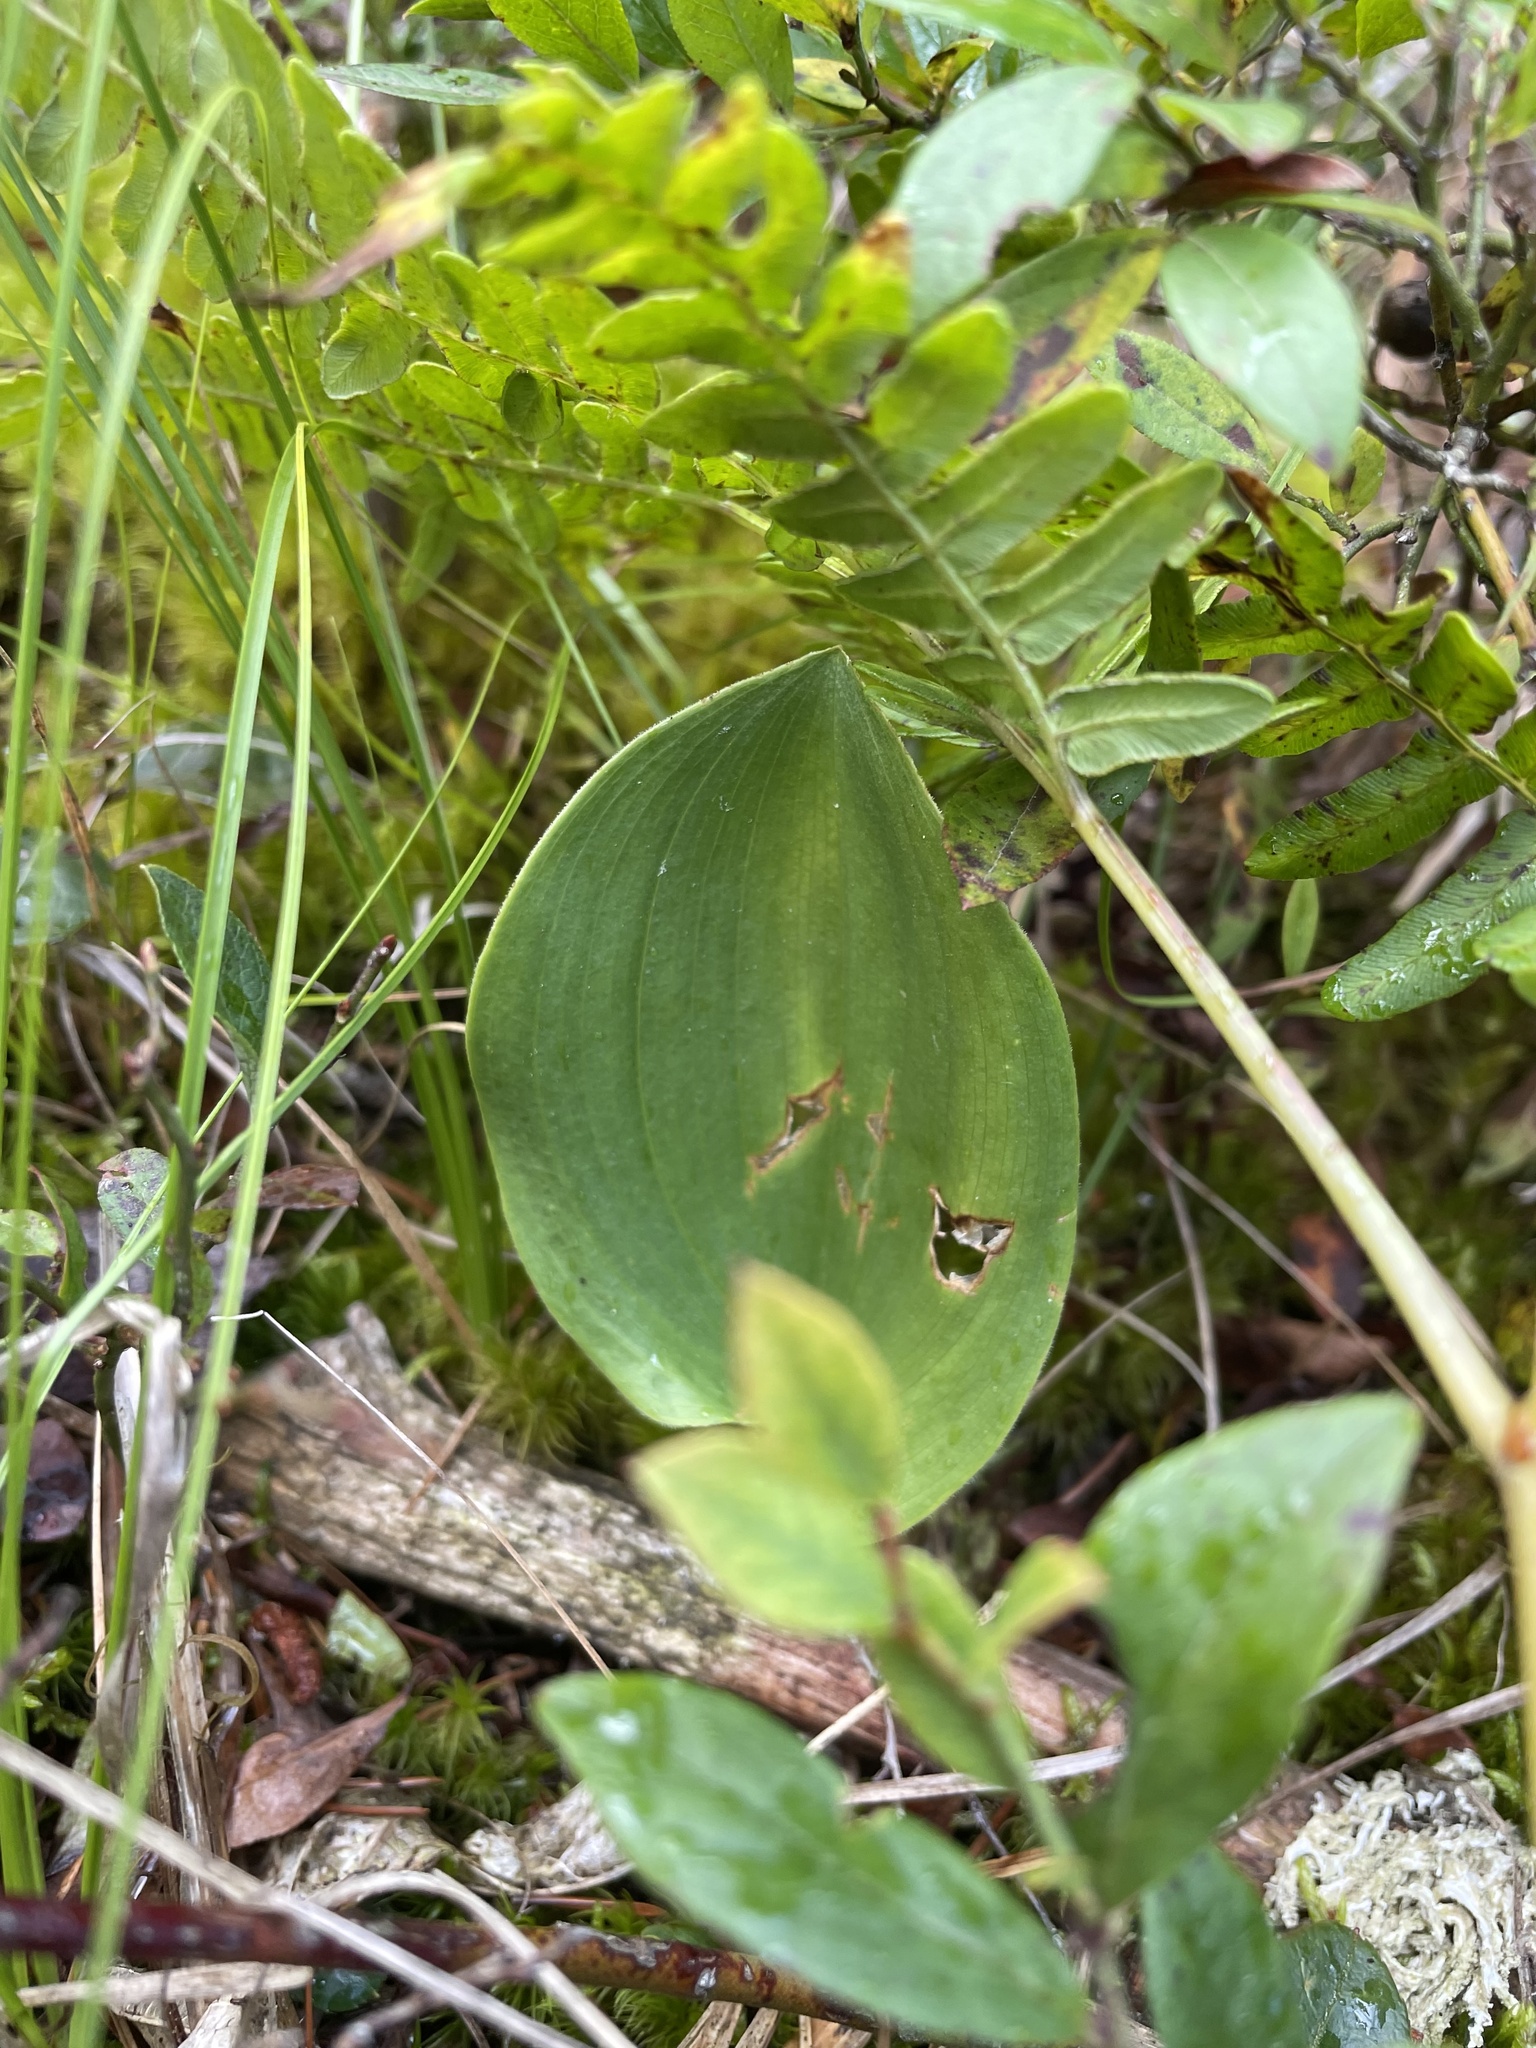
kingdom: Plantae
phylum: Tracheophyta
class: Liliopsida
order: Asparagales
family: Asparagaceae
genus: Maianthemum
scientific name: Maianthemum canadense
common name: False lily-of-the-valley
